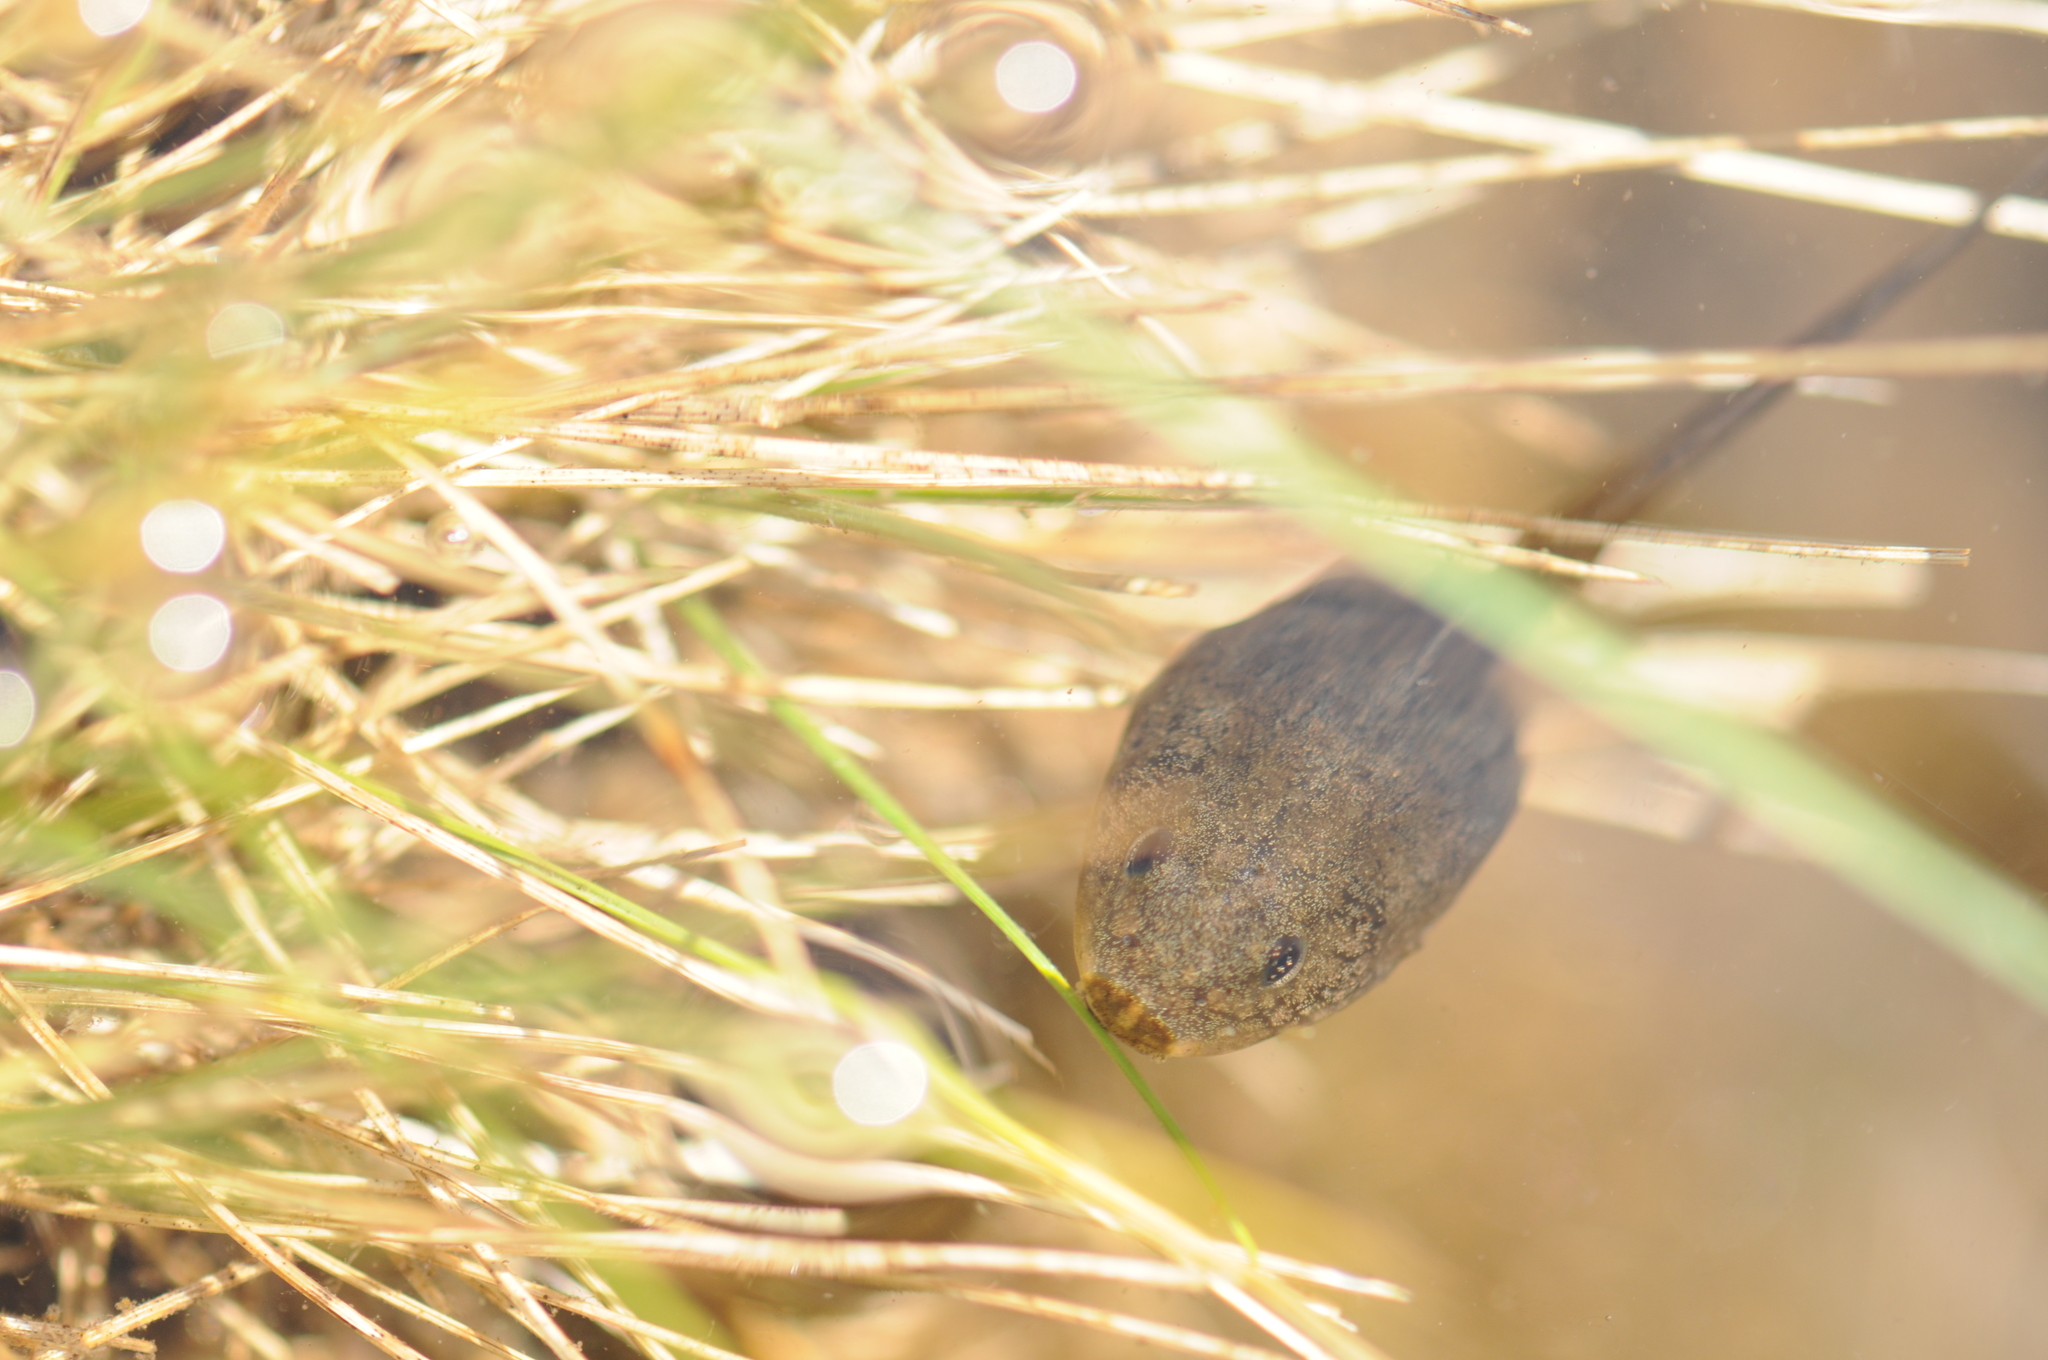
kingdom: Animalia
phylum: Chordata
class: Amphibia
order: Anura
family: Ranidae
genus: Rana
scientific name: Rana temporaria
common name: Common frog
